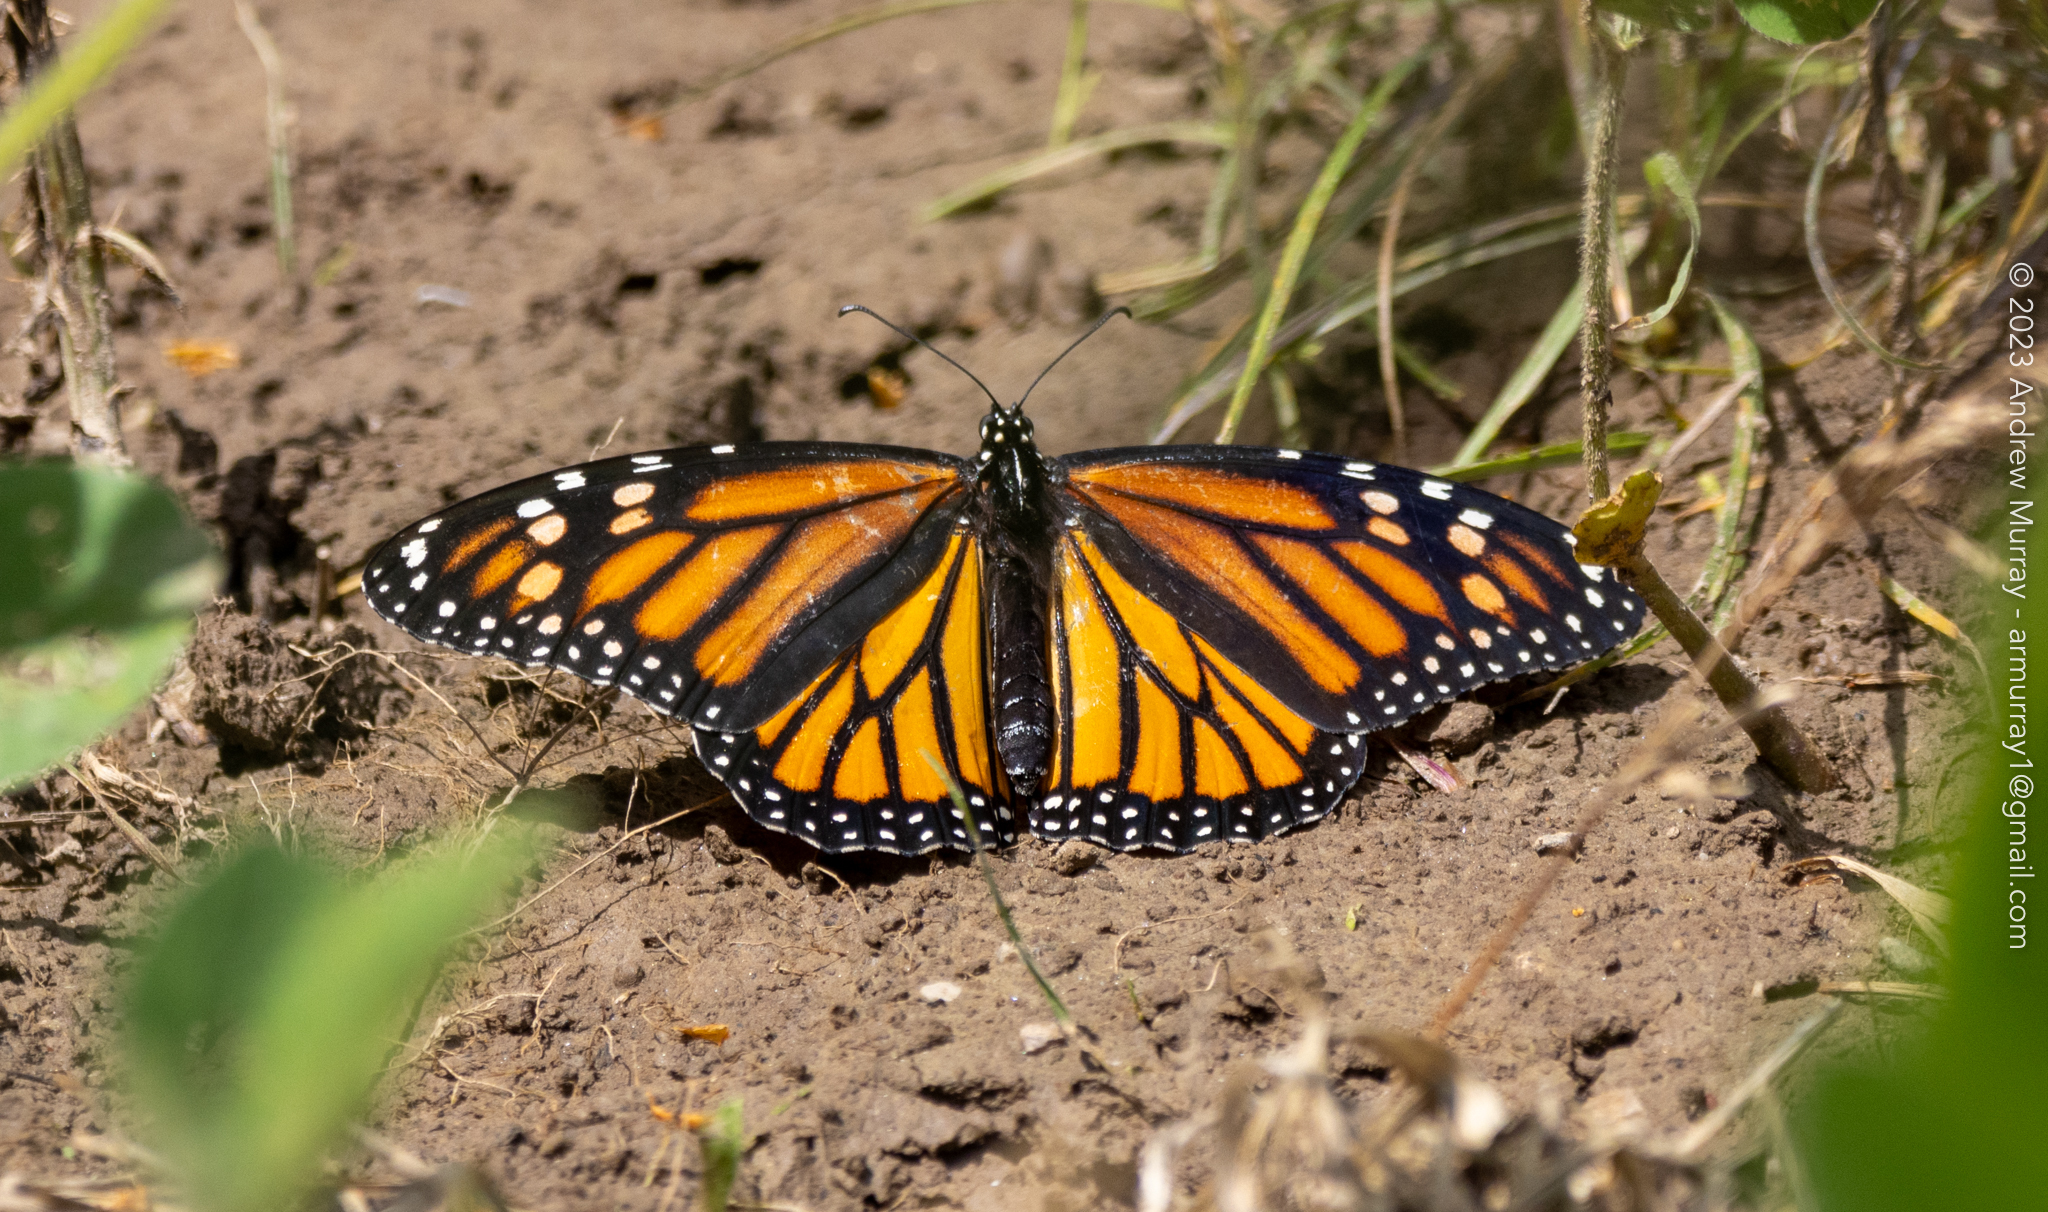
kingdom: Animalia
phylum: Arthropoda
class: Insecta
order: Lepidoptera
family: Nymphalidae
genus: Danaus
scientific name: Danaus plexippus
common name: Monarch
